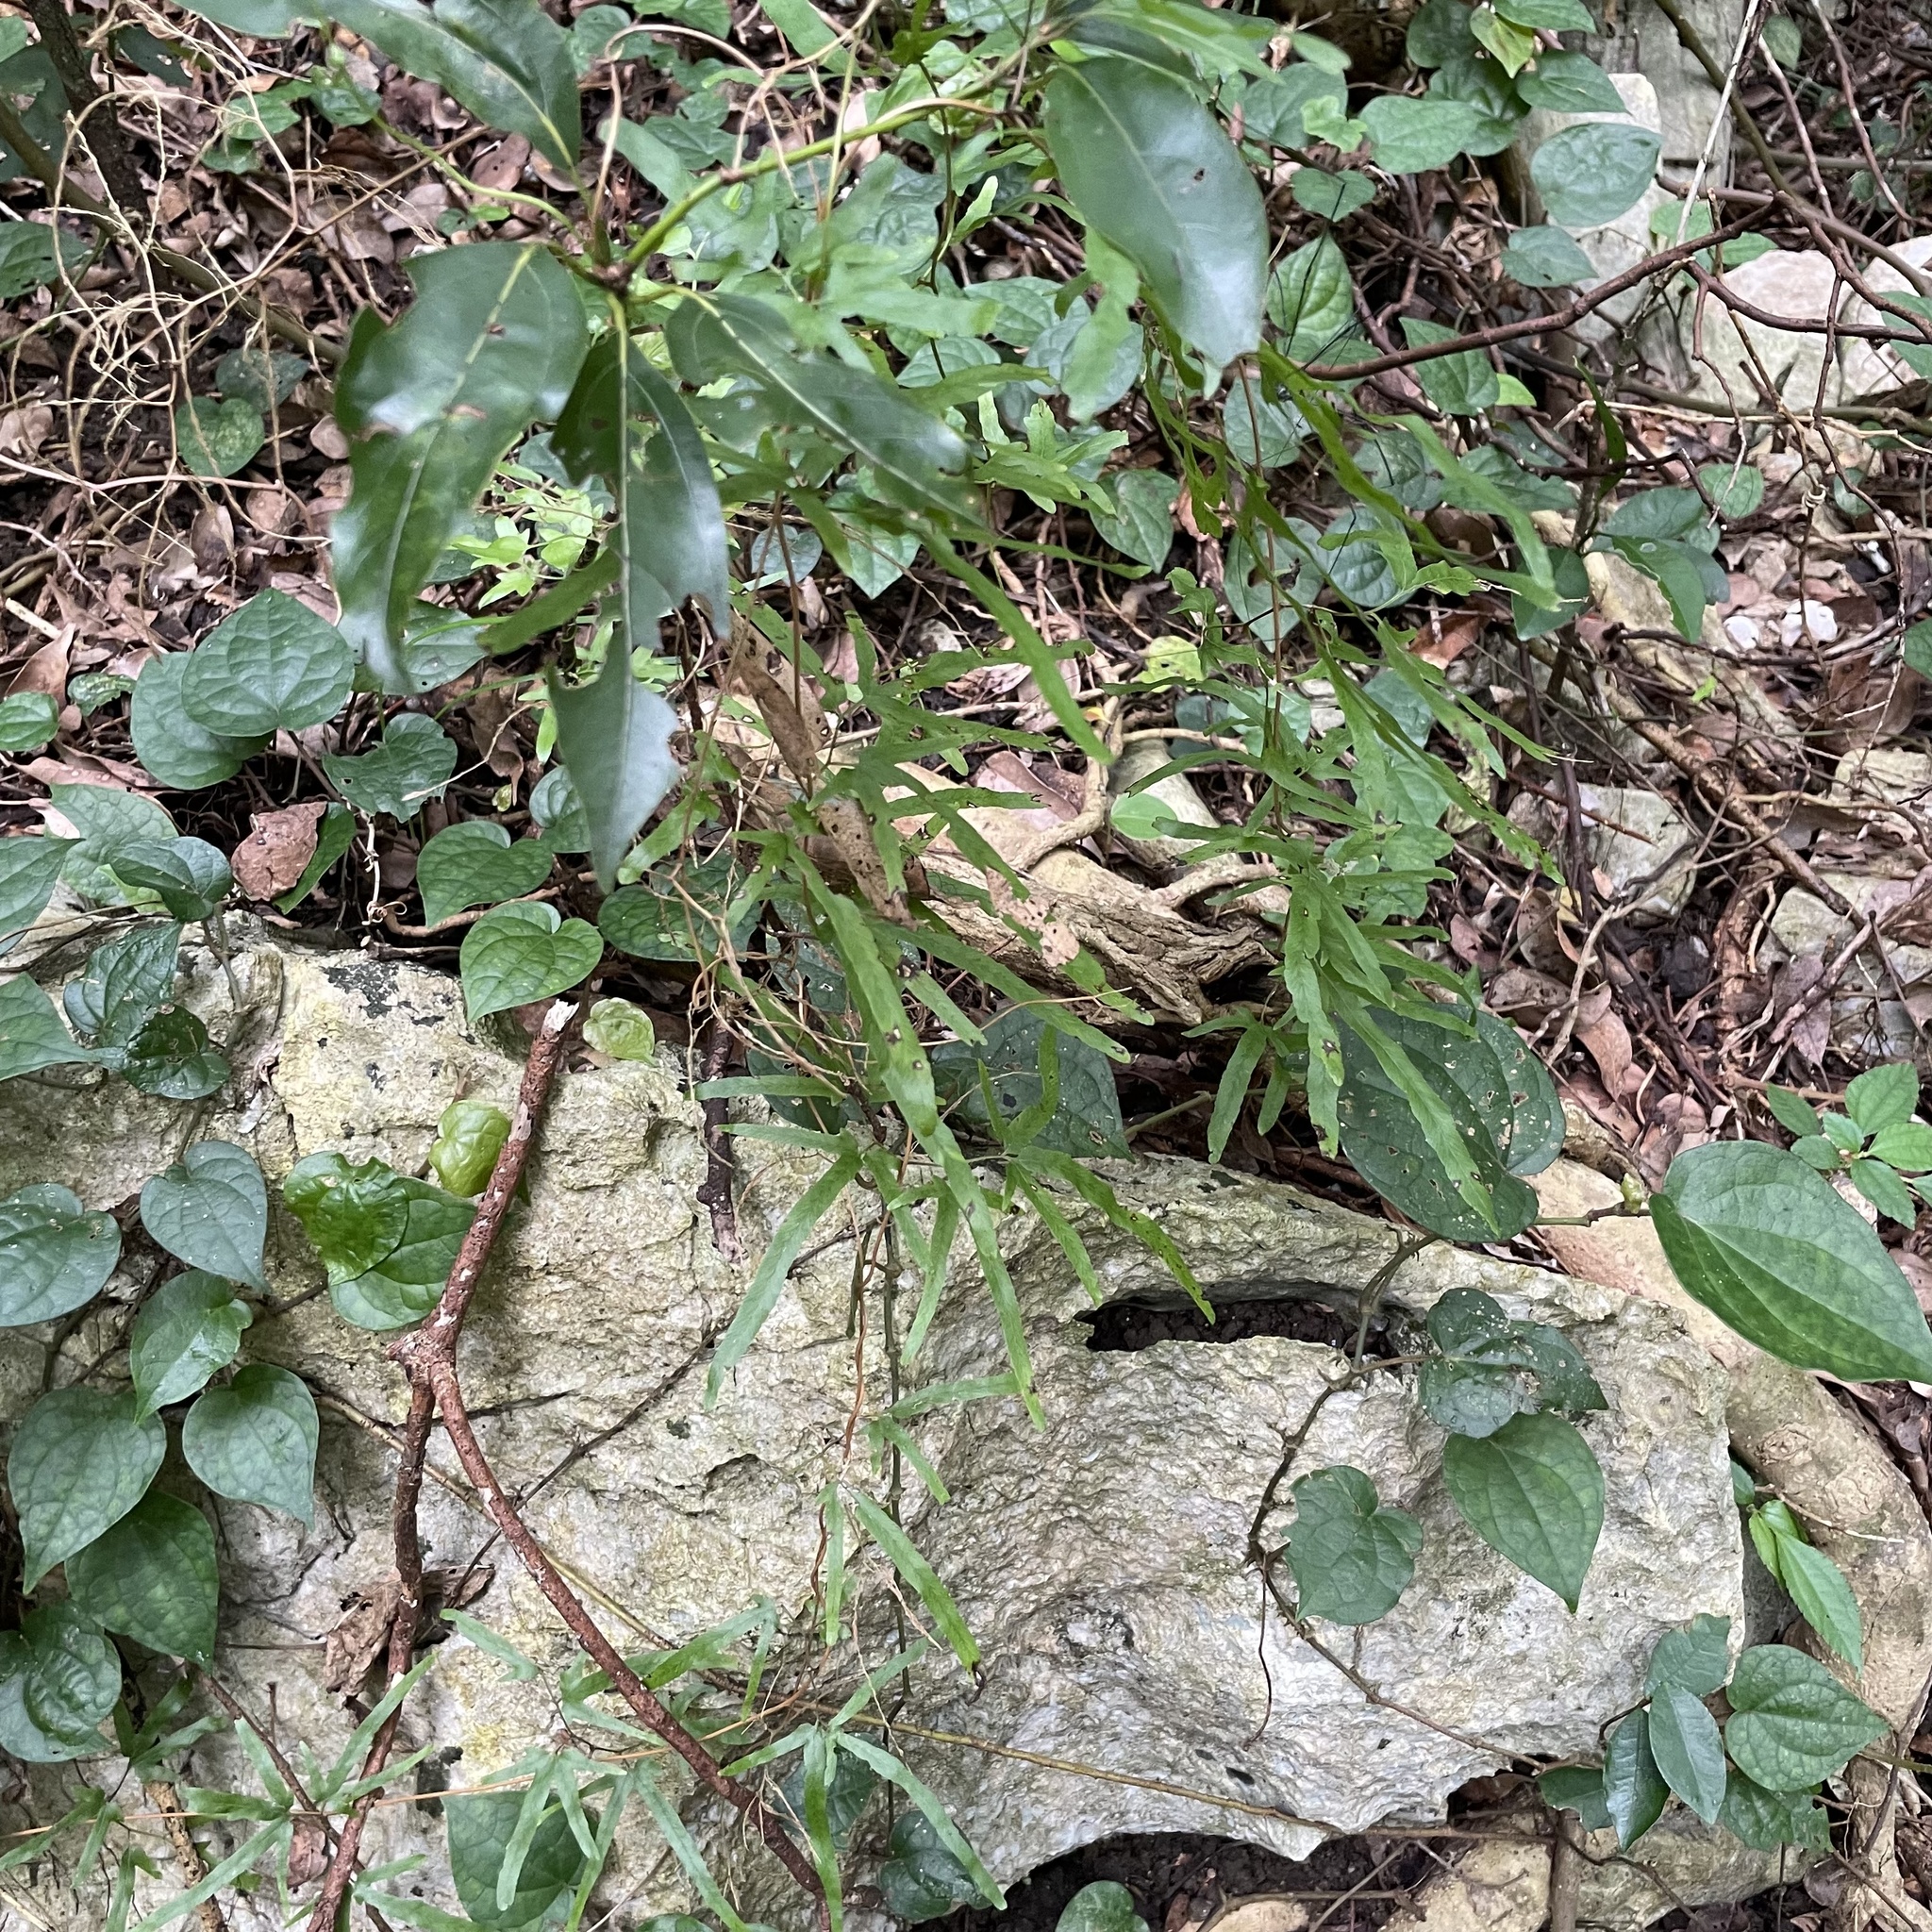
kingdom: Plantae
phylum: Tracheophyta
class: Polypodiopsida
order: Schizaeales
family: Lygodiaceae
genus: Lygodium
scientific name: Lygodium japonicum
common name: Japanese climbing fern
